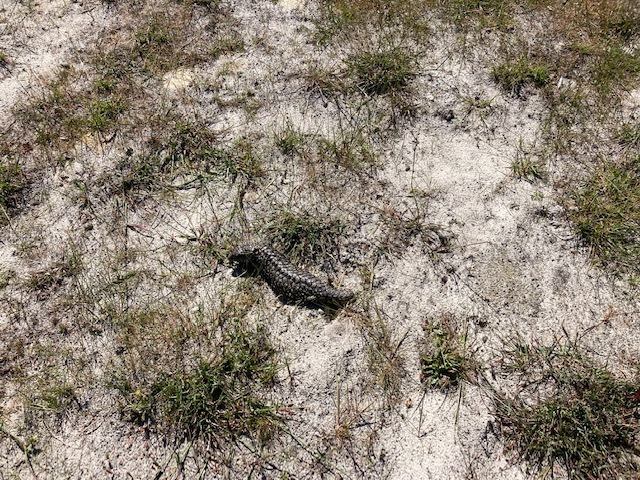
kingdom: Animalia
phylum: Chordata
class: Squamata
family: Scincidae
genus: Tiliqua
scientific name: Tiliqua rugosa
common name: Pinecone lizard
